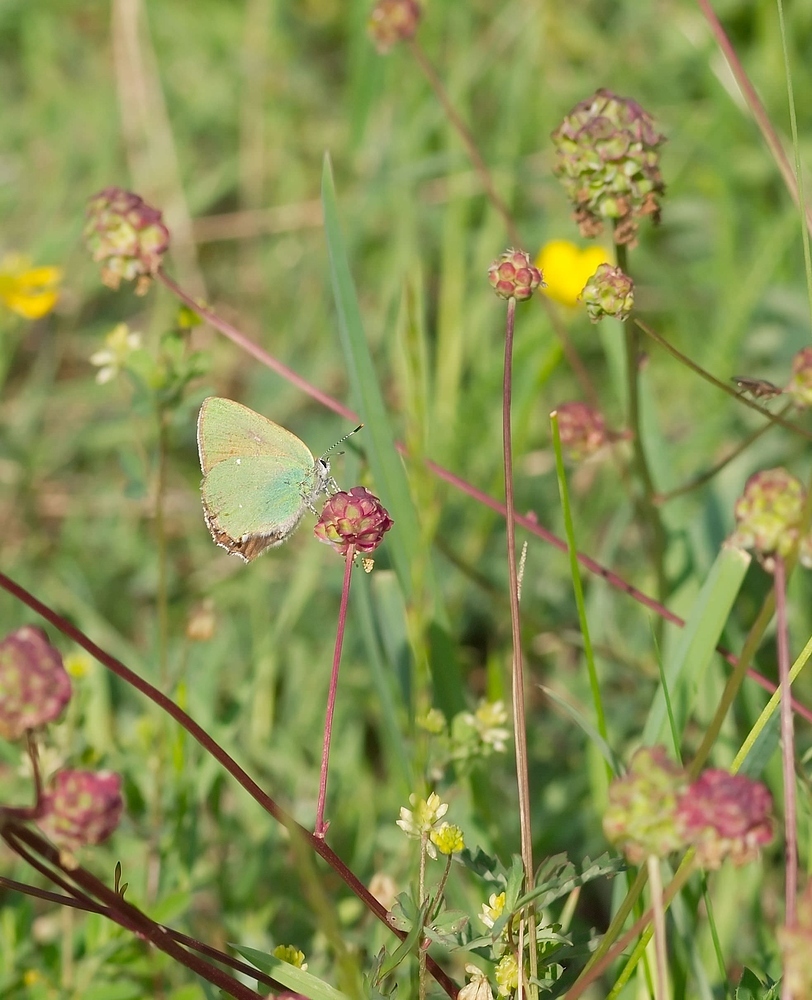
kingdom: Animalia
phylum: Arthropoda
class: Insecta
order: Lepidoptera
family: Lycaenidae
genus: Callophrys
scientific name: Callophrys rubi
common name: Green hairstreak
